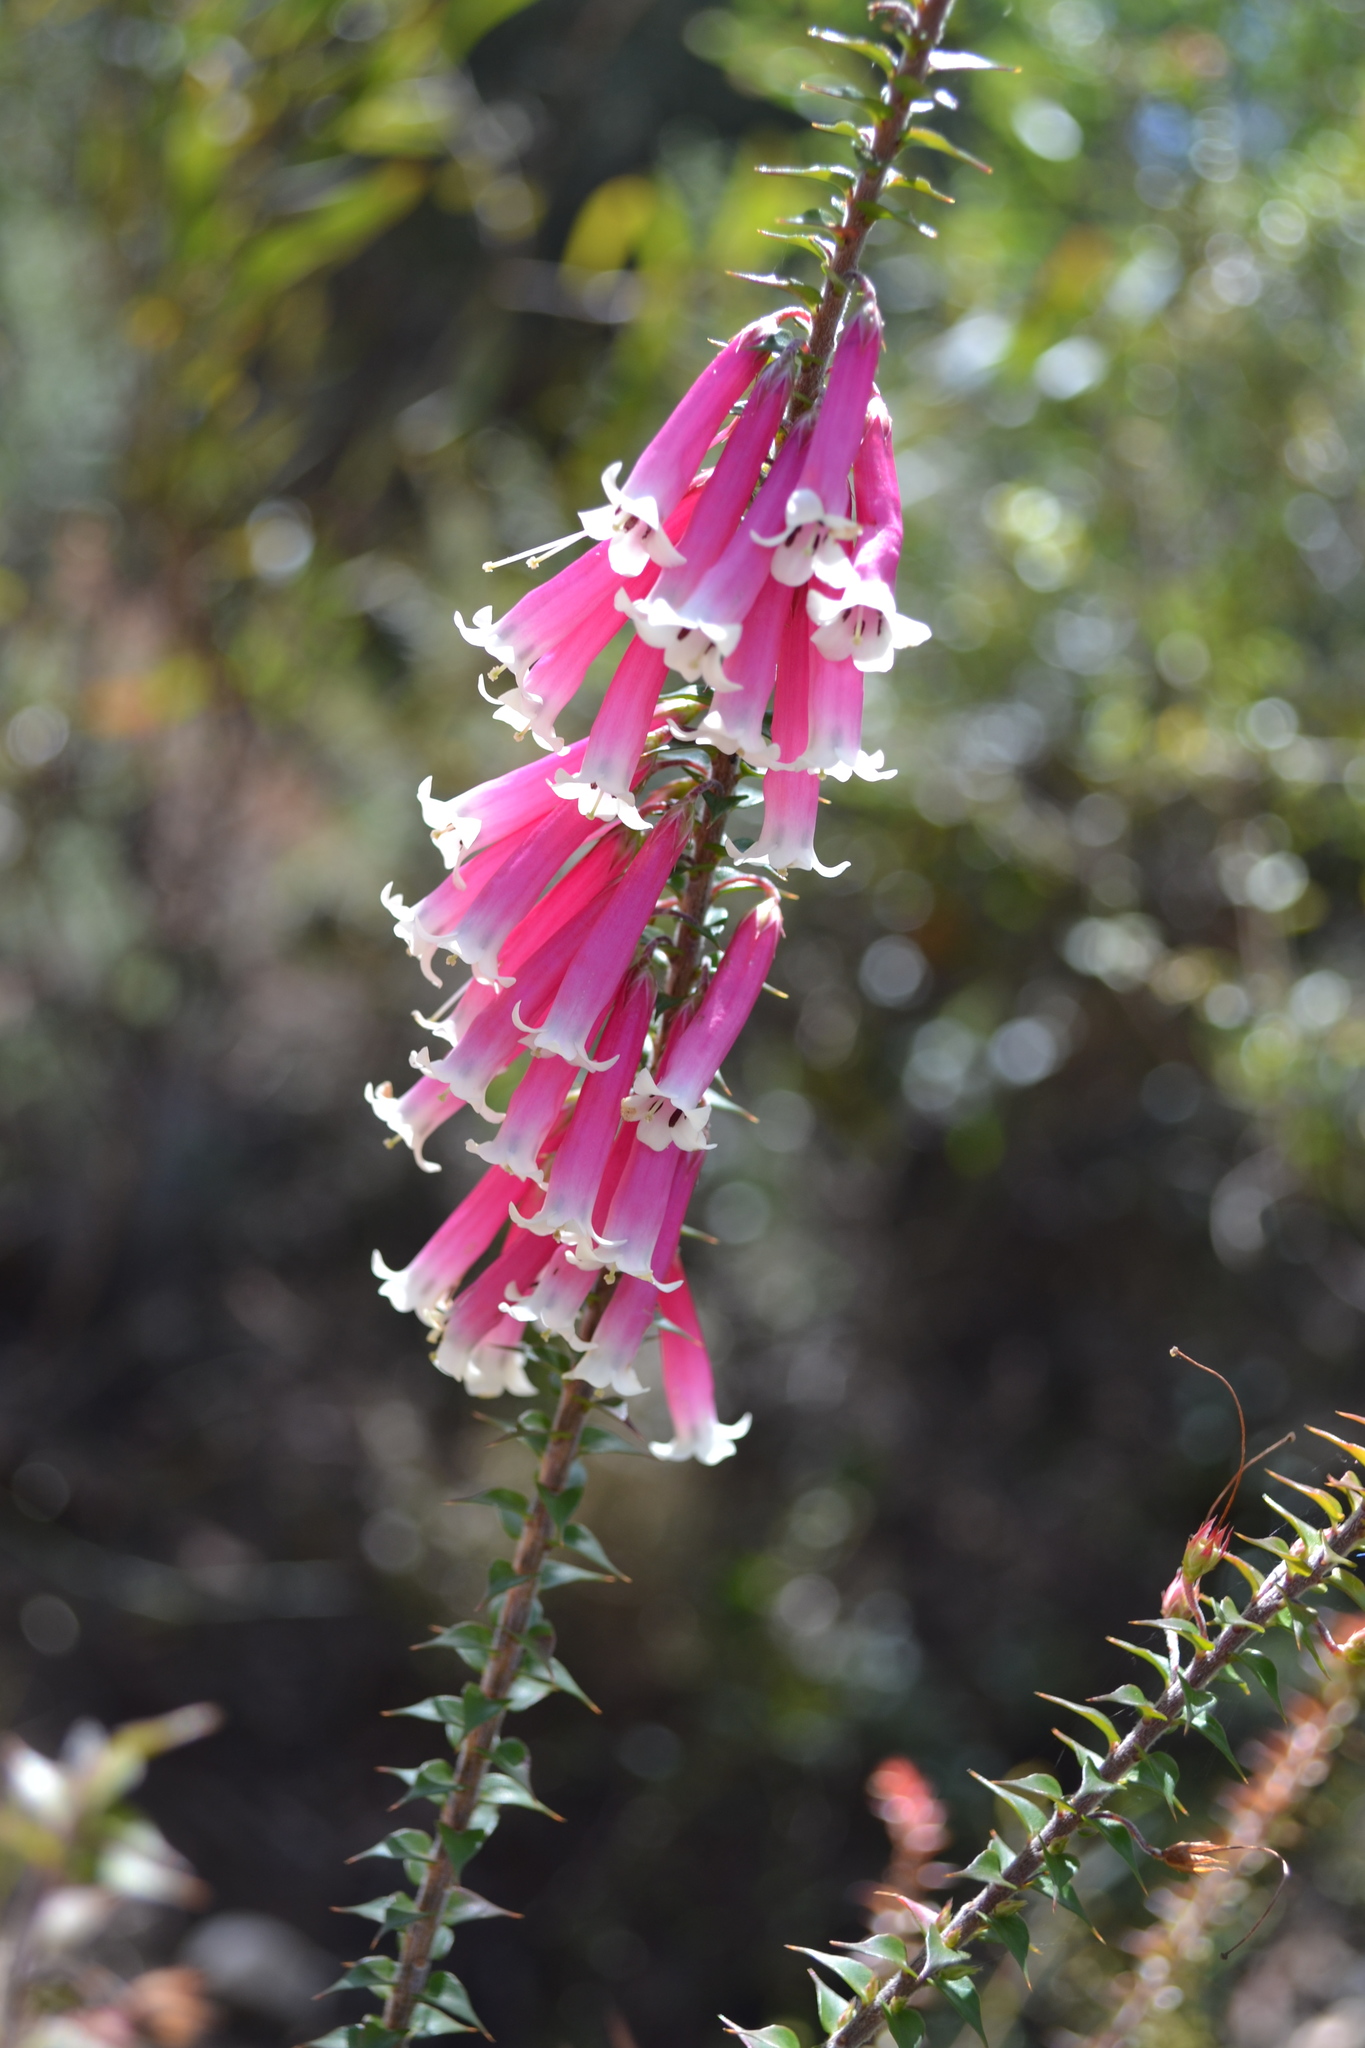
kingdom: Plantae
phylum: Tracheophyta
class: Magnoliopsida
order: Ericales
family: Ericaceae
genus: Epacris
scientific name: Epacris longiflora
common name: Fuchsia-heath
